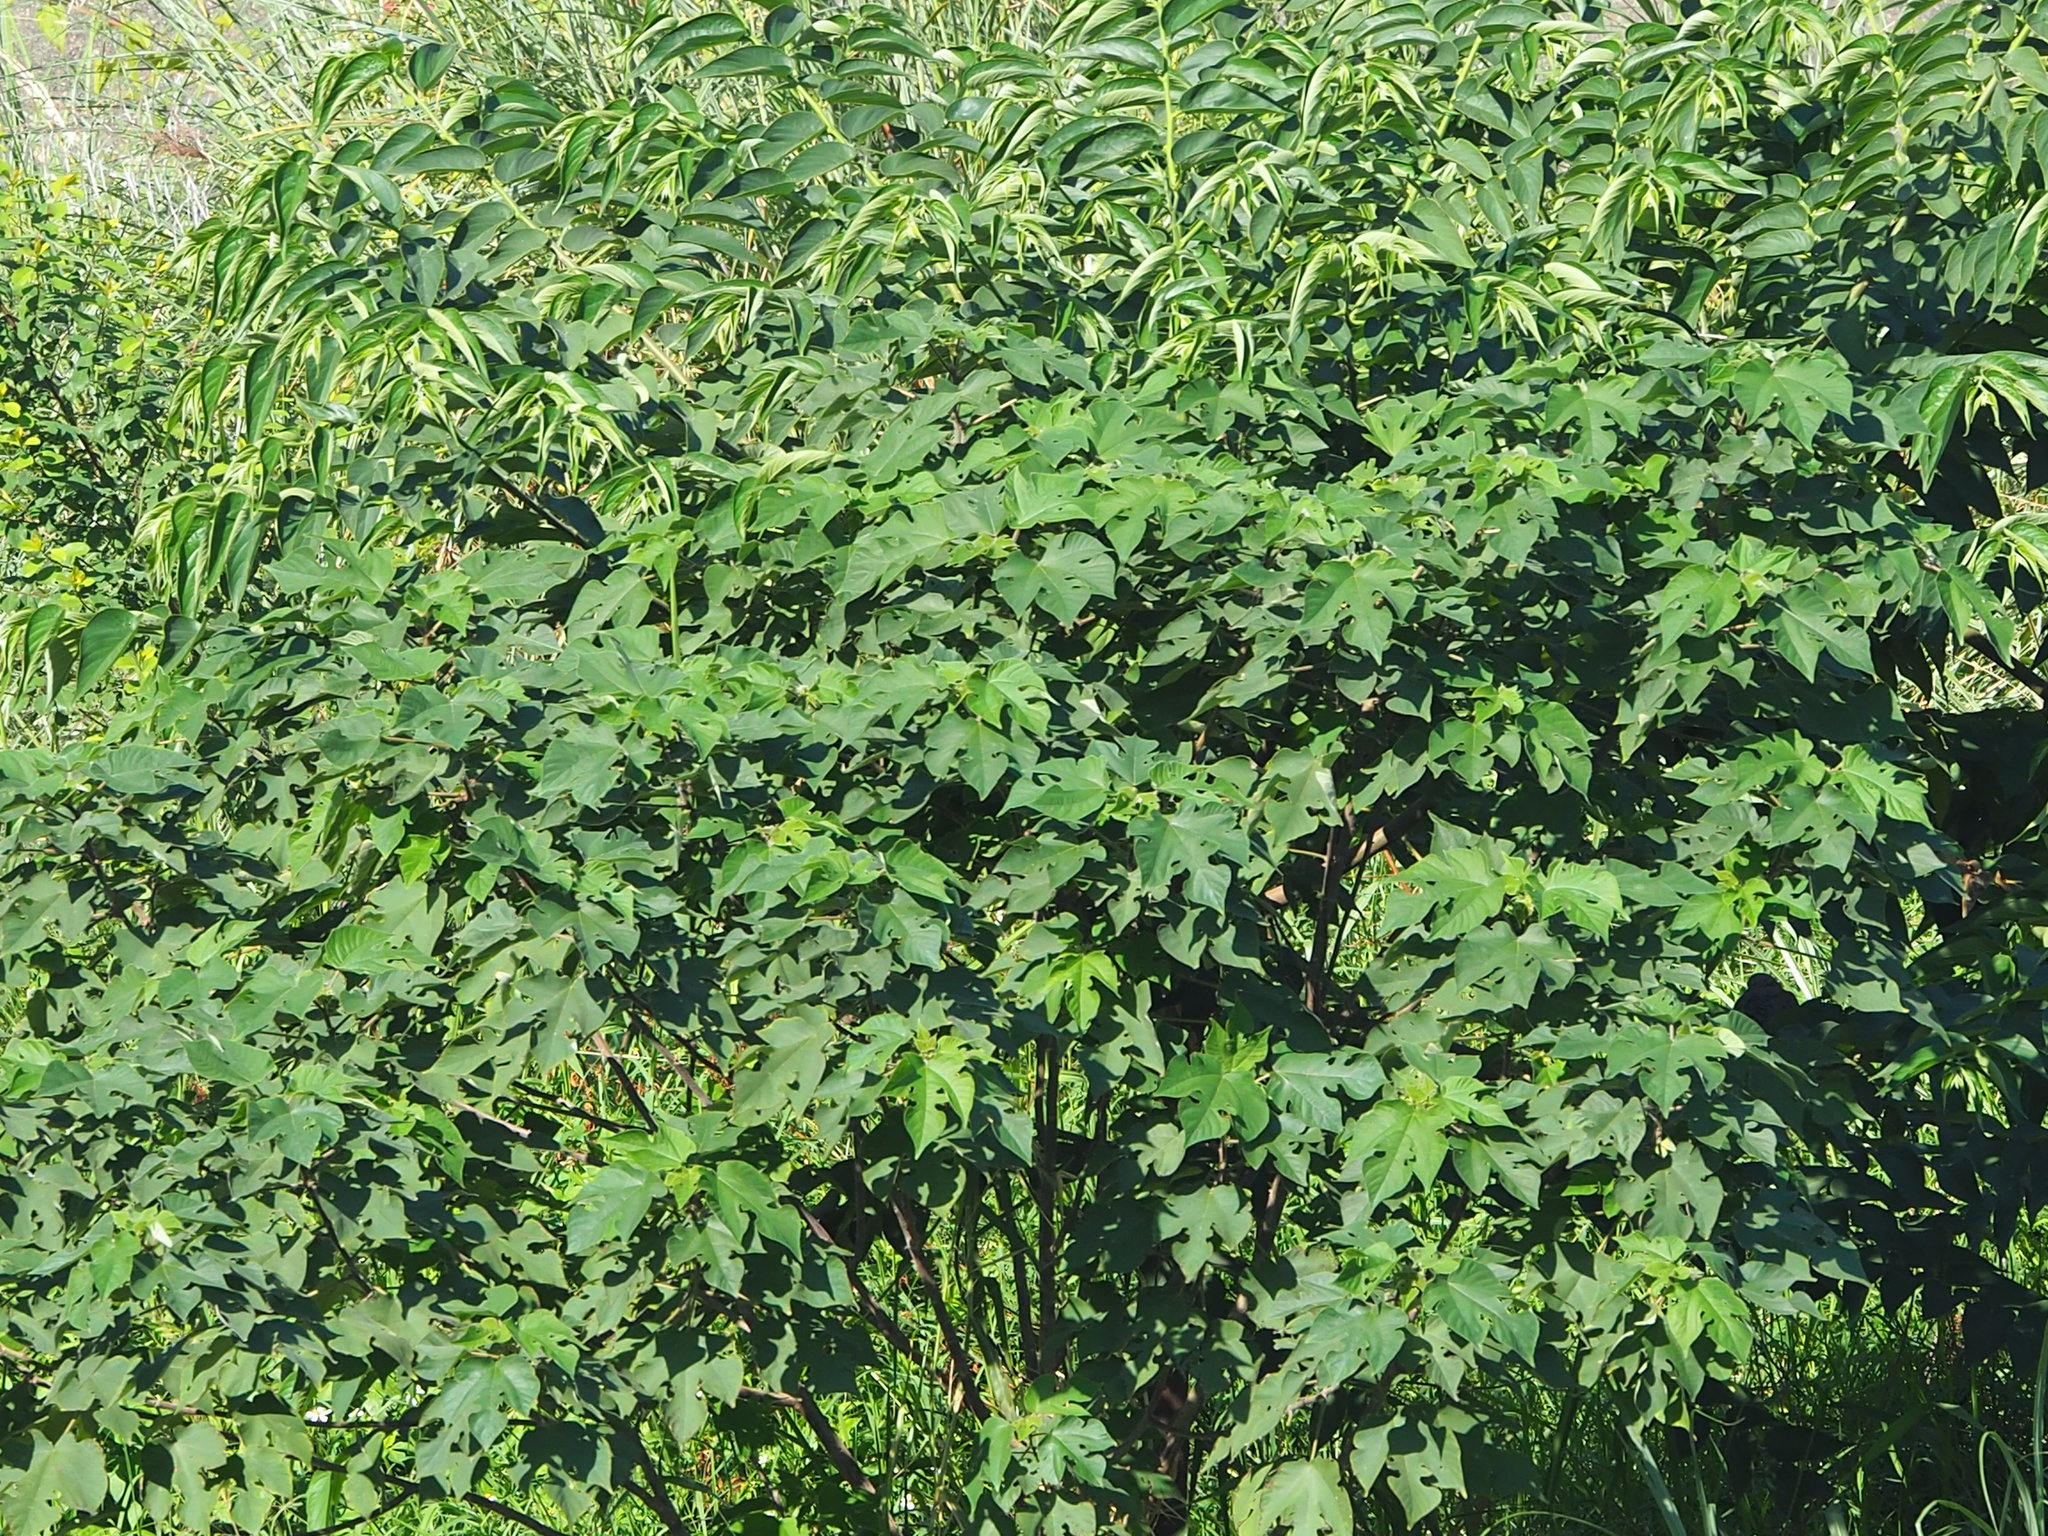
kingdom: Plantae
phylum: Tracheophyta
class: Magnoliopsida
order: Rosales
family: Moraceae
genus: Broussonetia
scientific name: Broussonetia papyrifera
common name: Paper mulberry
